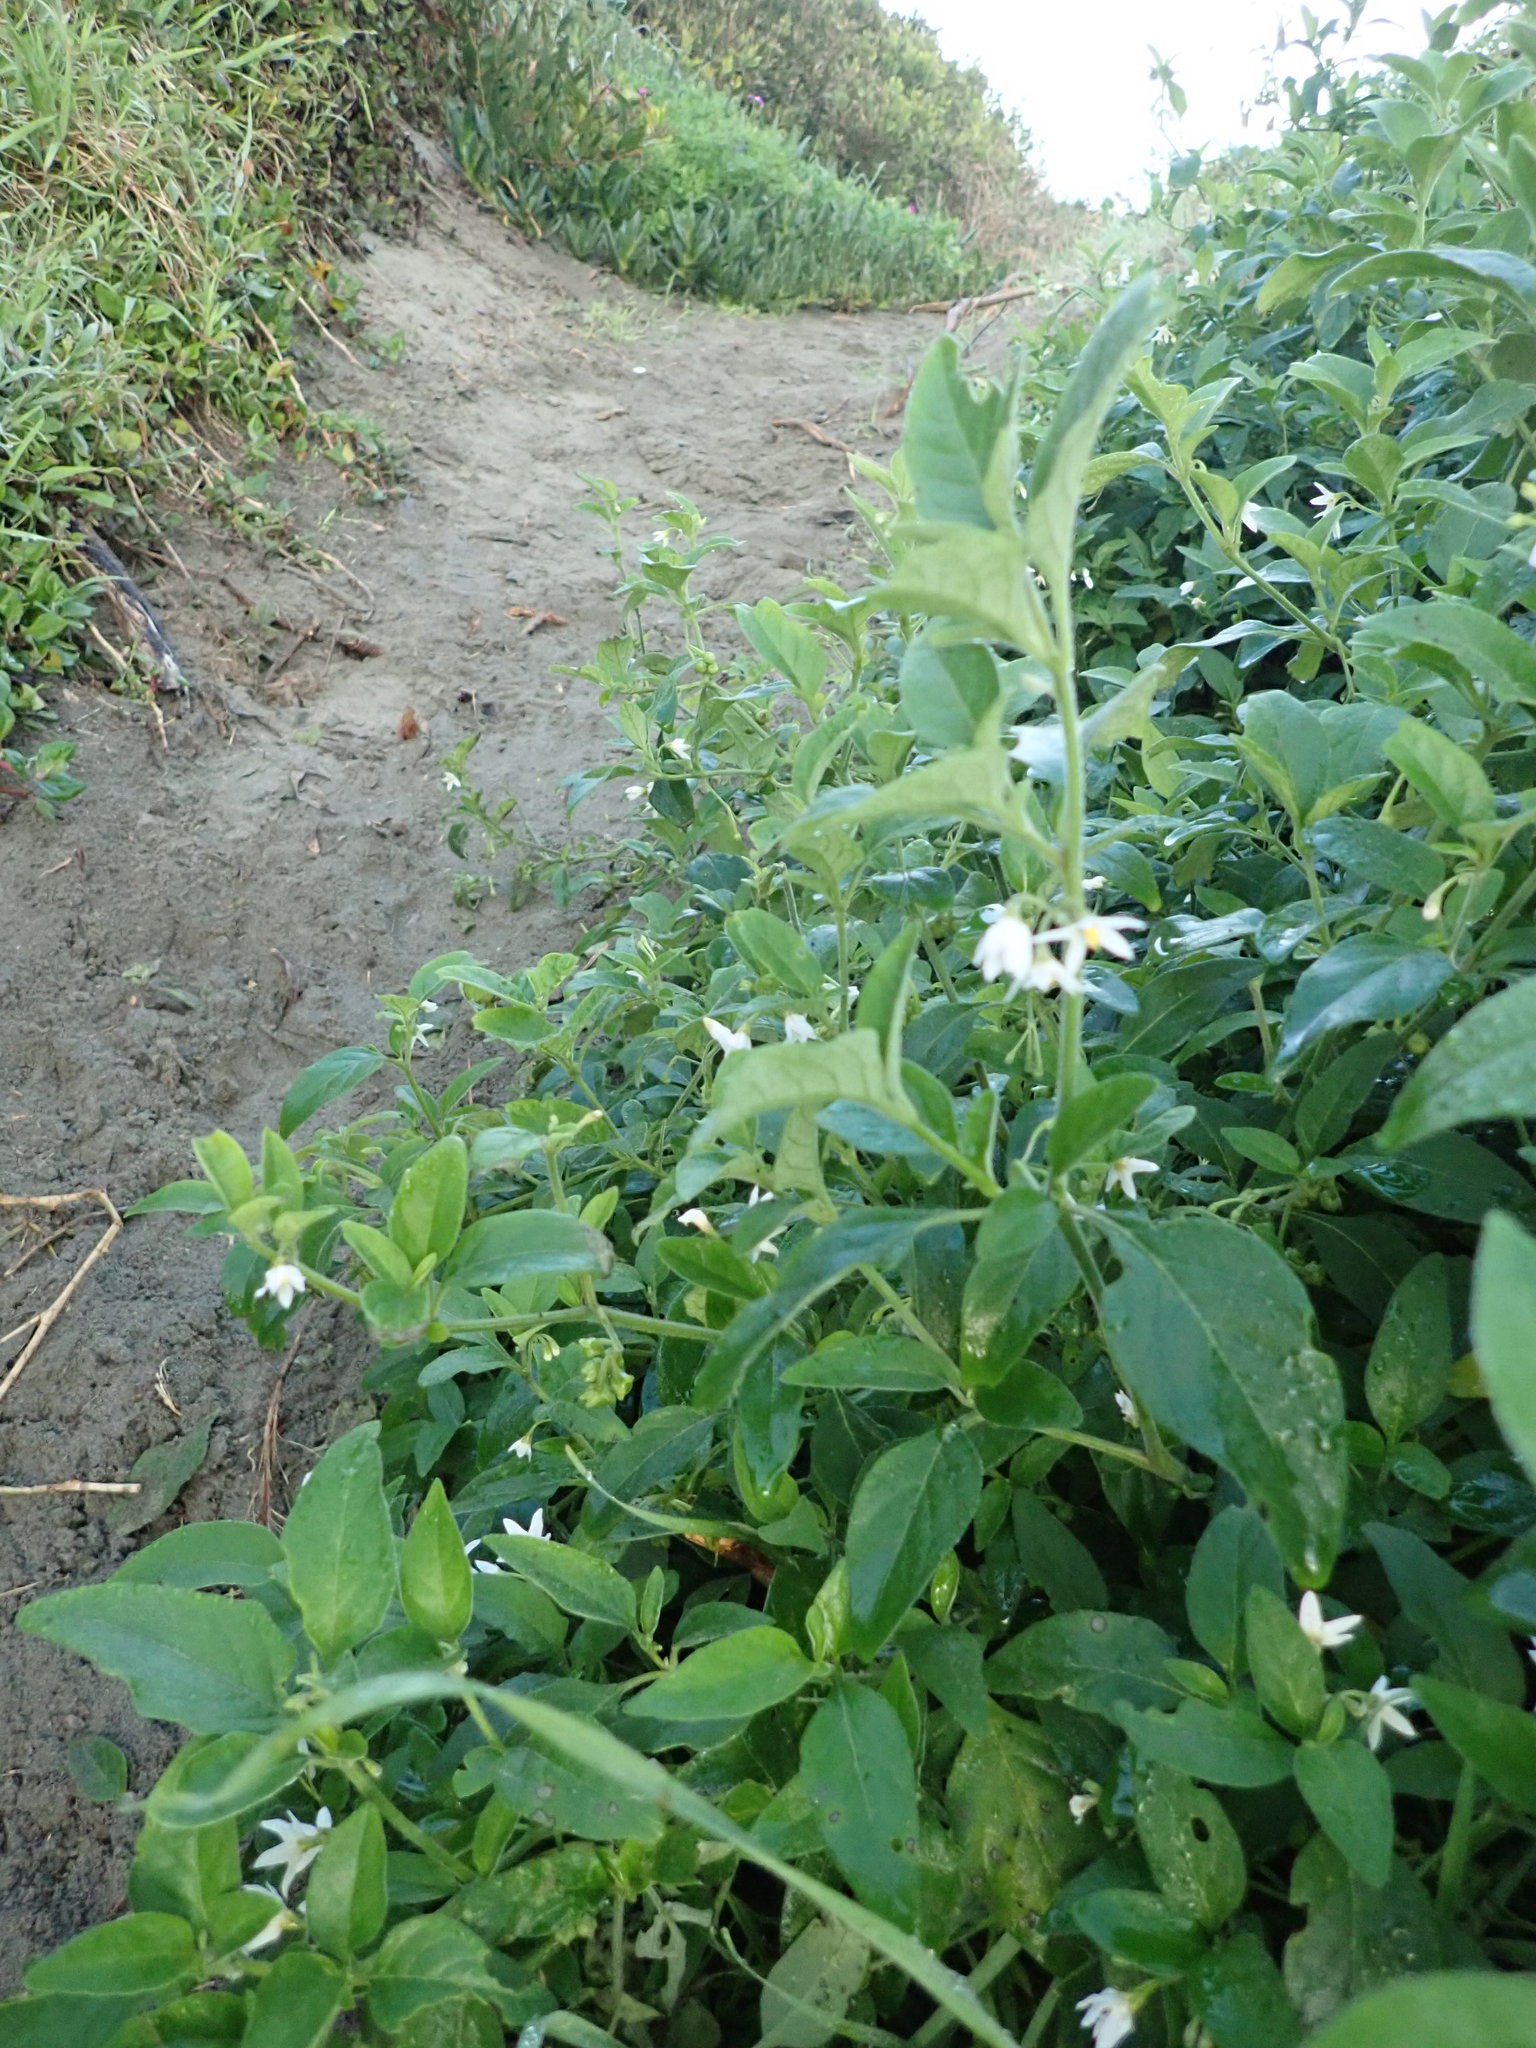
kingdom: Plantae
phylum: Tracheophyta
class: Magnoliopsida
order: Solanales
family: Solanaceae
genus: Solanum
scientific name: Solanum chenopodioides
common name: Tall nightshade
